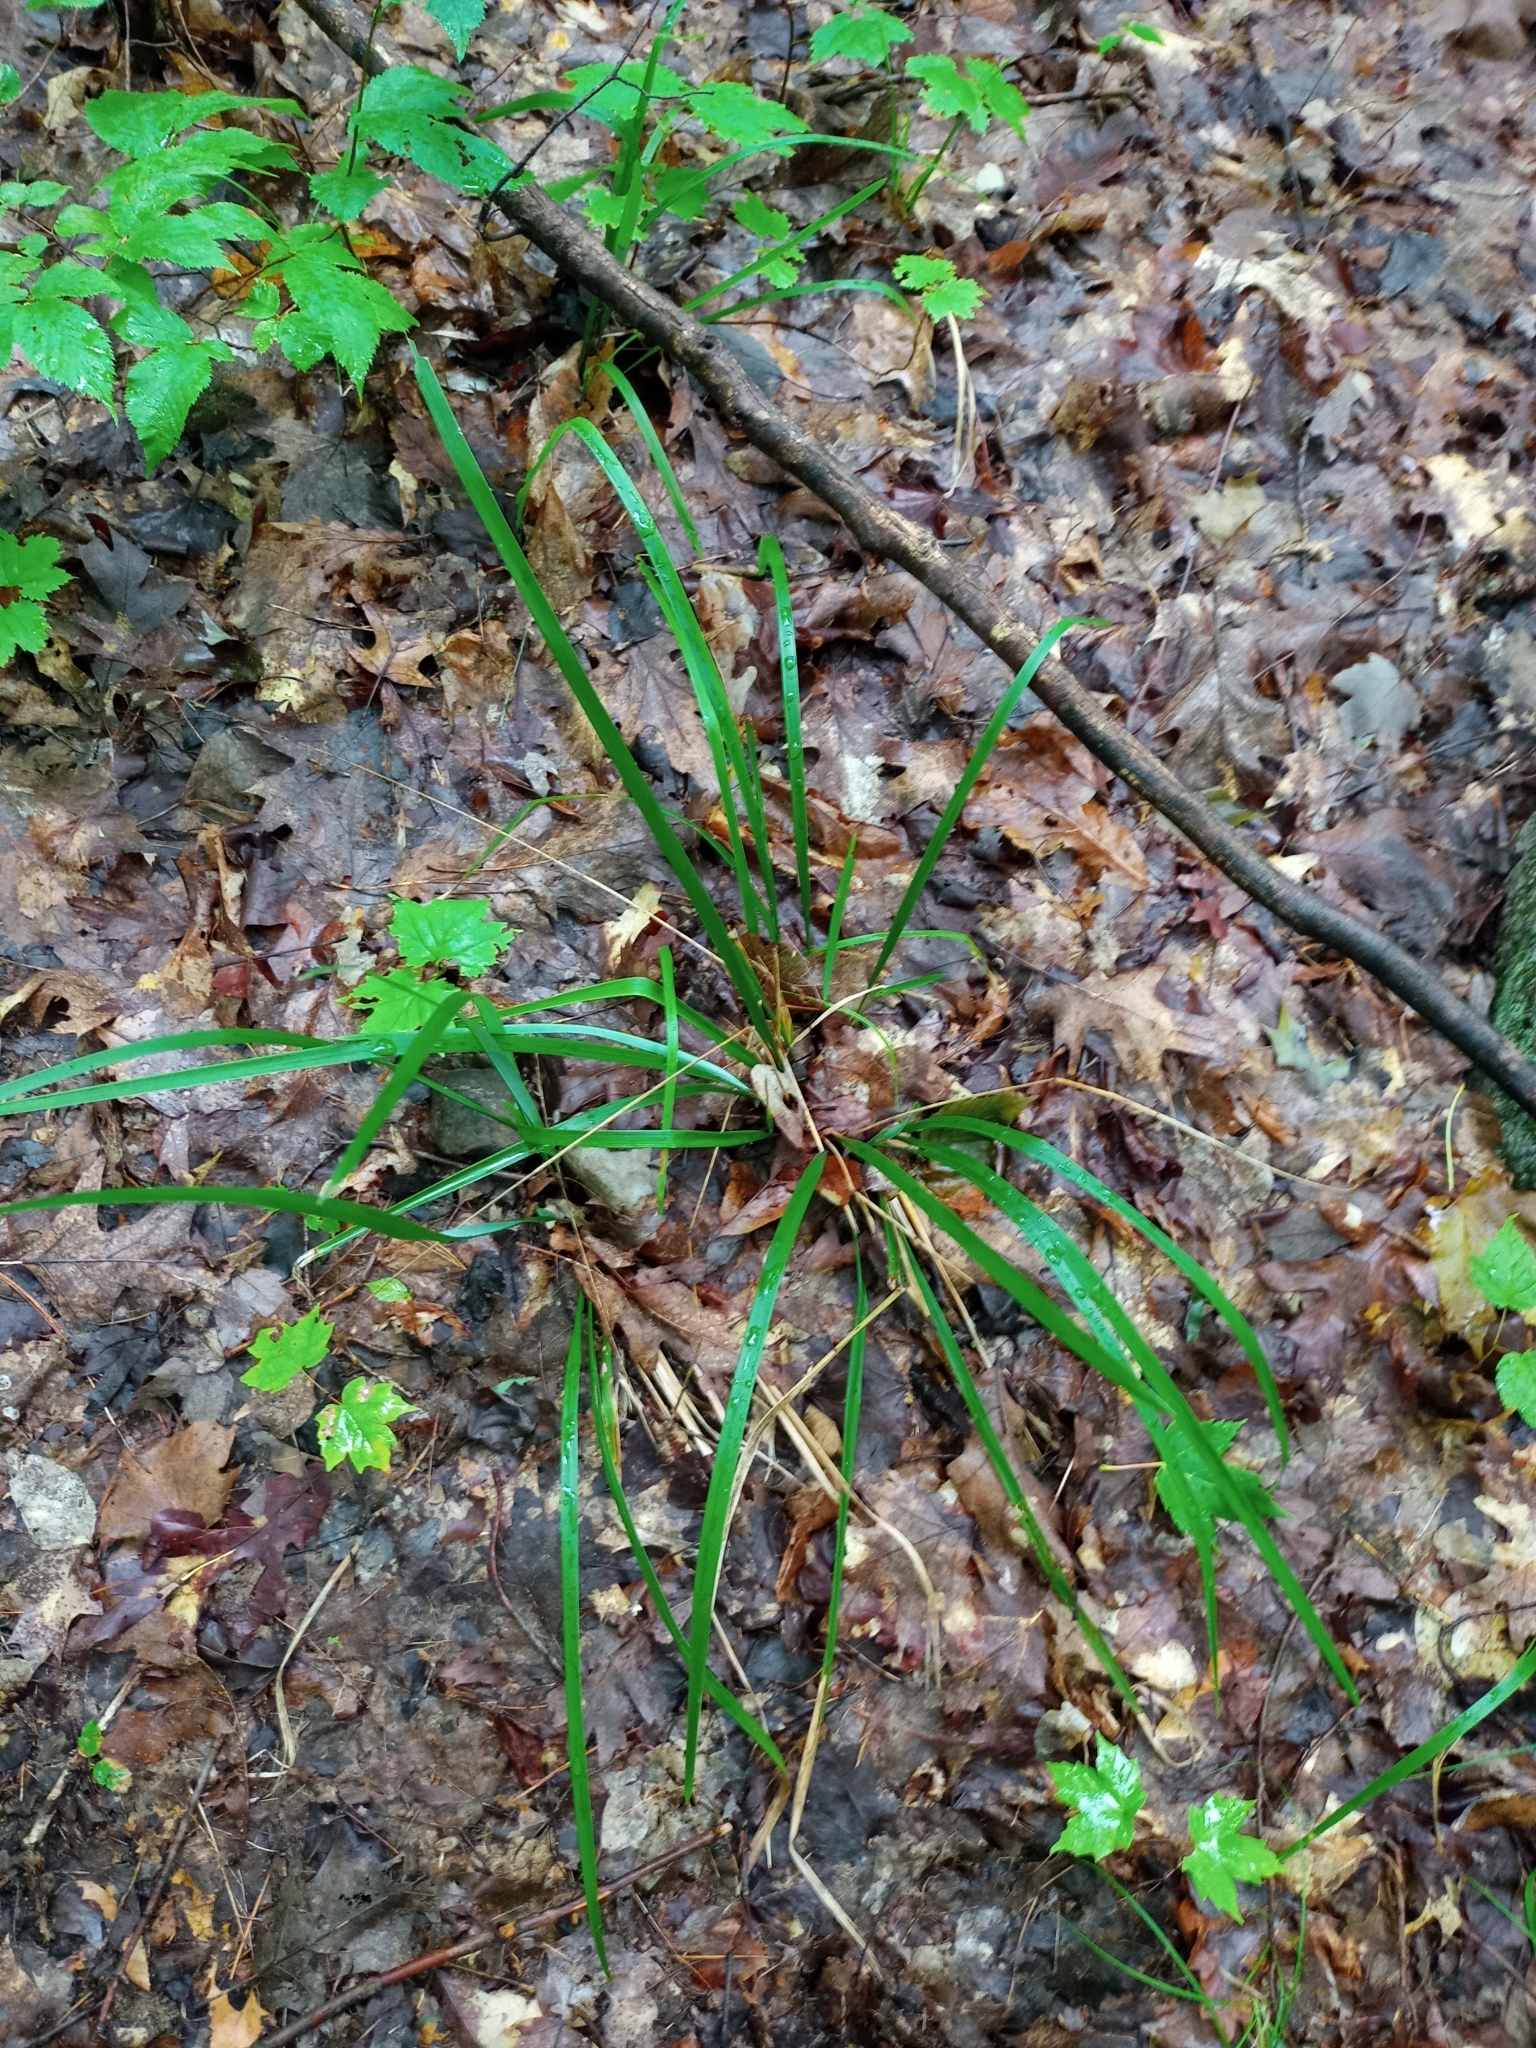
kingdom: Plantae
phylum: Tracheophyta
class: Liliopsida
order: Poales
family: Poaceae
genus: Oryzopsis
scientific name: Oryzopsis asperifolia
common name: Rough-leaved mountain rice
